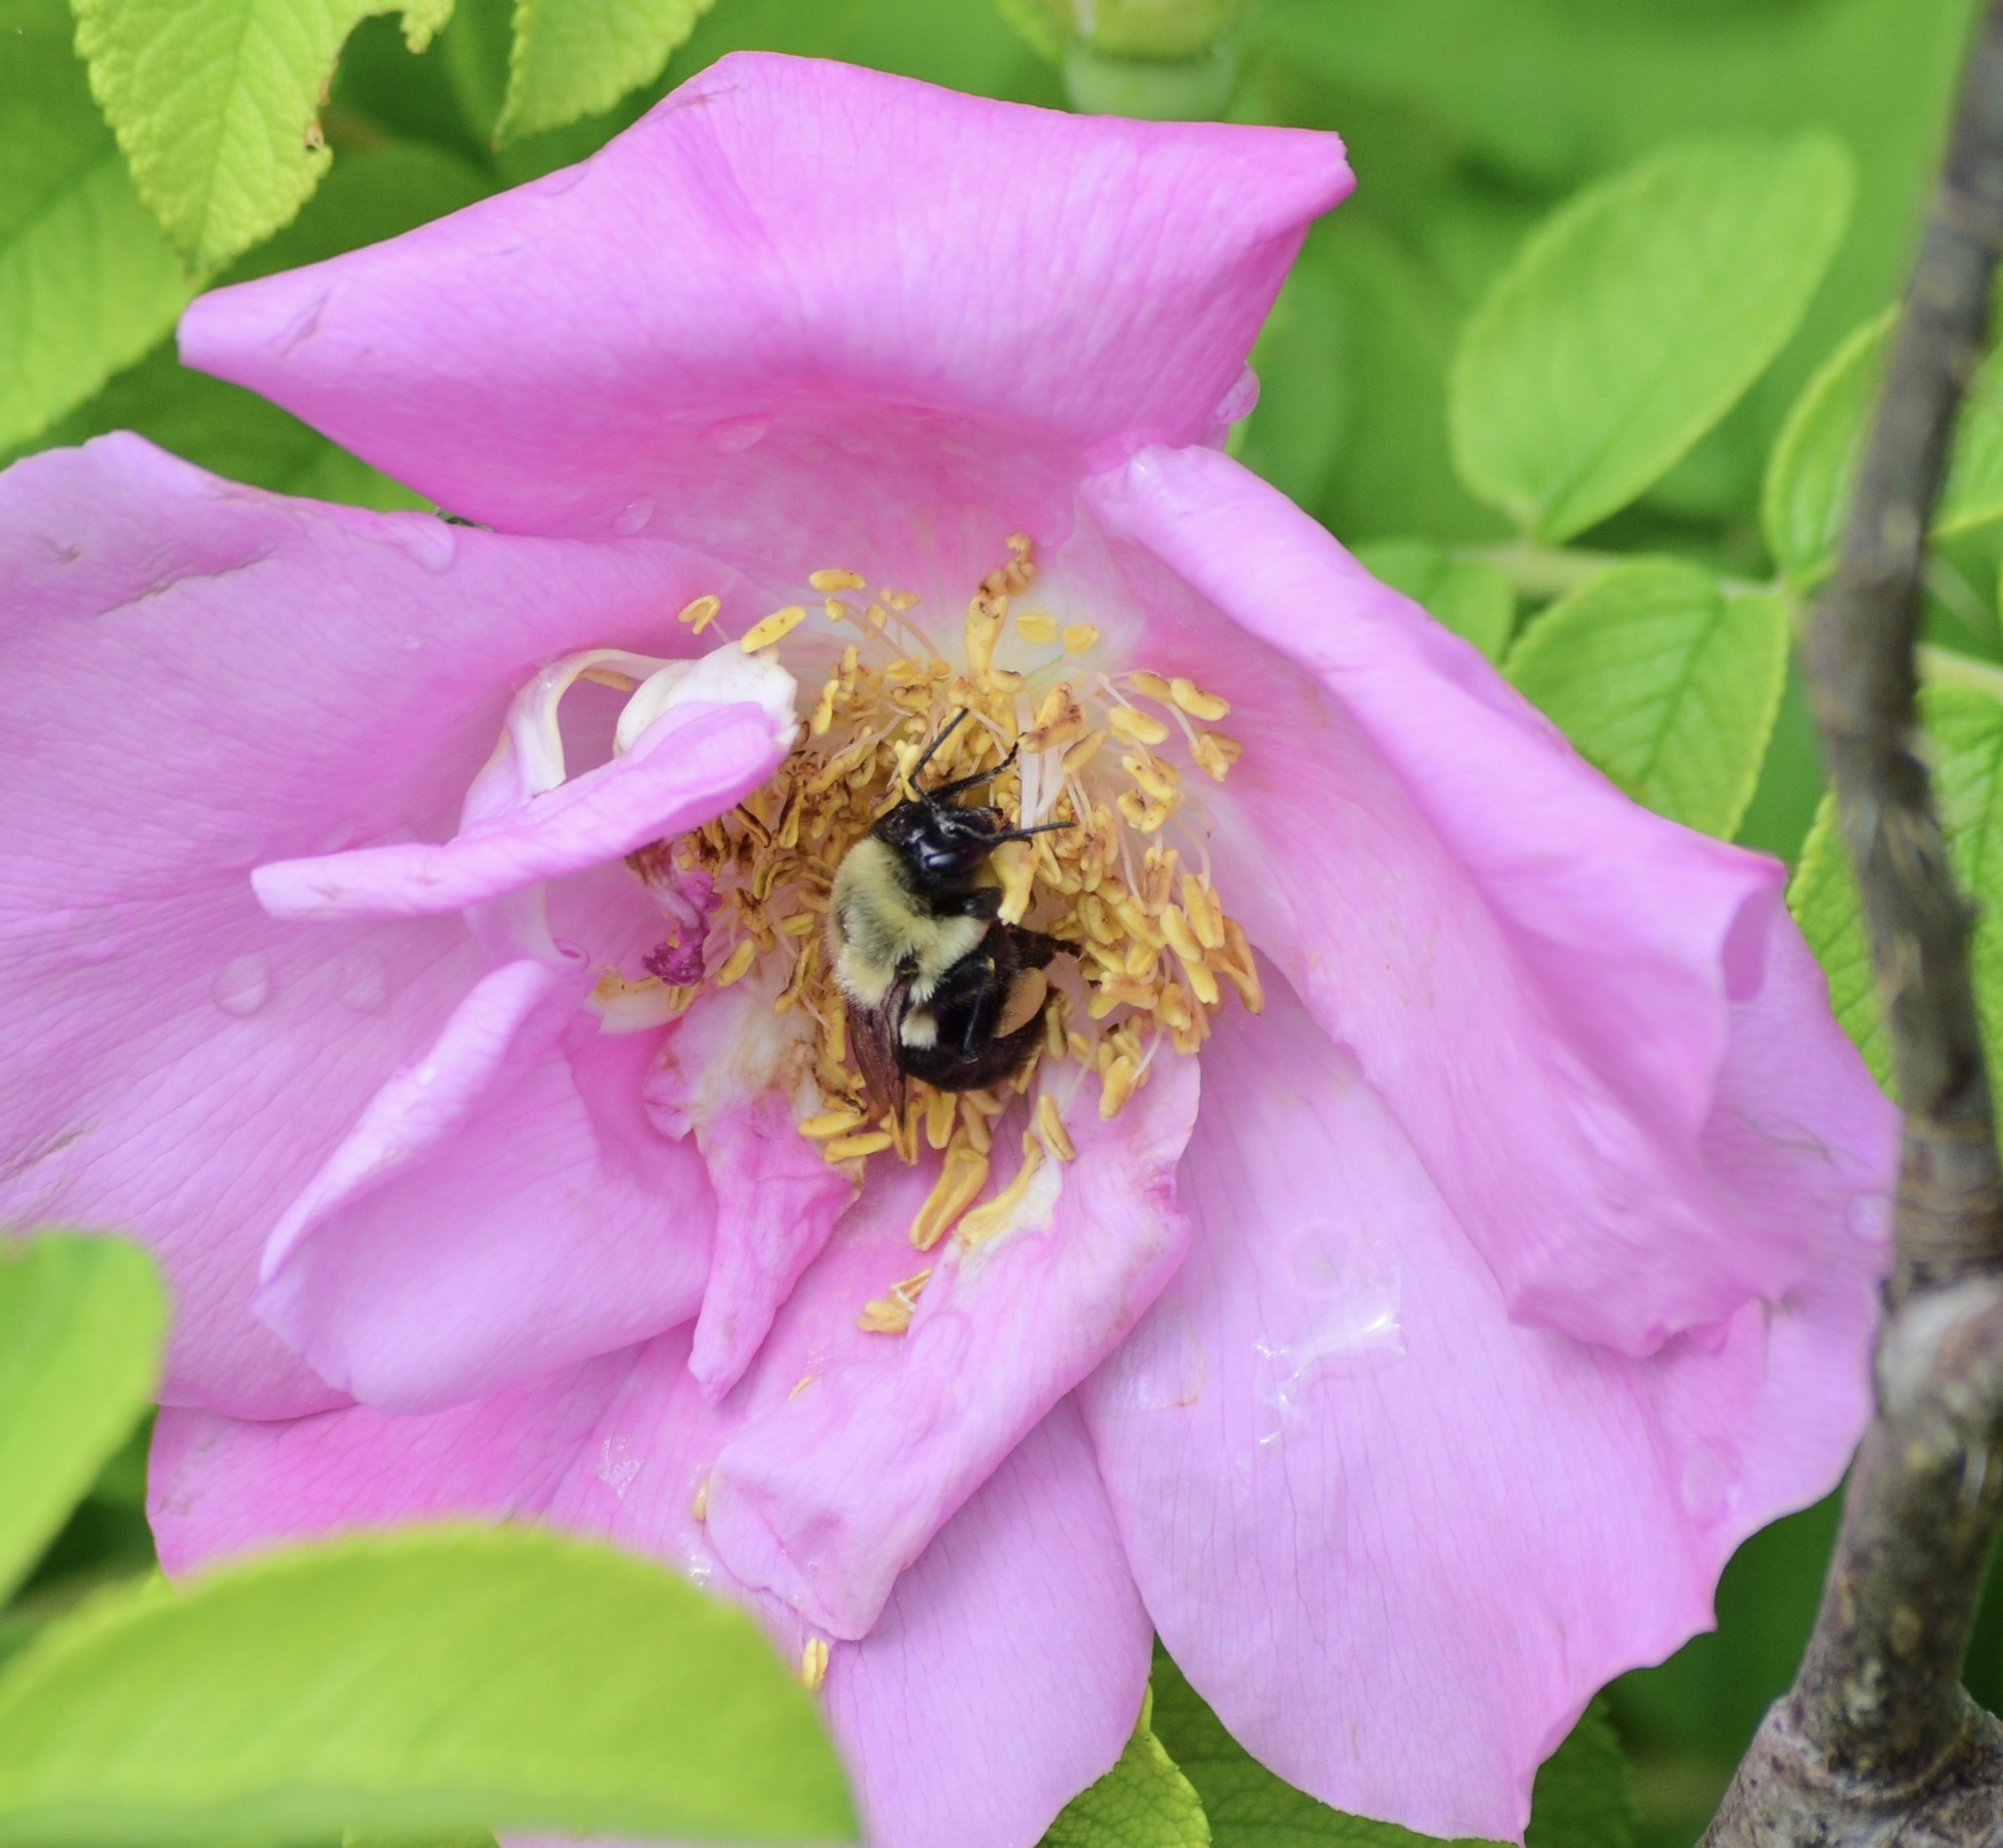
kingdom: Animalia
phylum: Arthropoda
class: Insecta
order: Hymenoptera
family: Apidae
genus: Bombus
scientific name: Bombus impatiens
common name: Common eastern bumble bee
